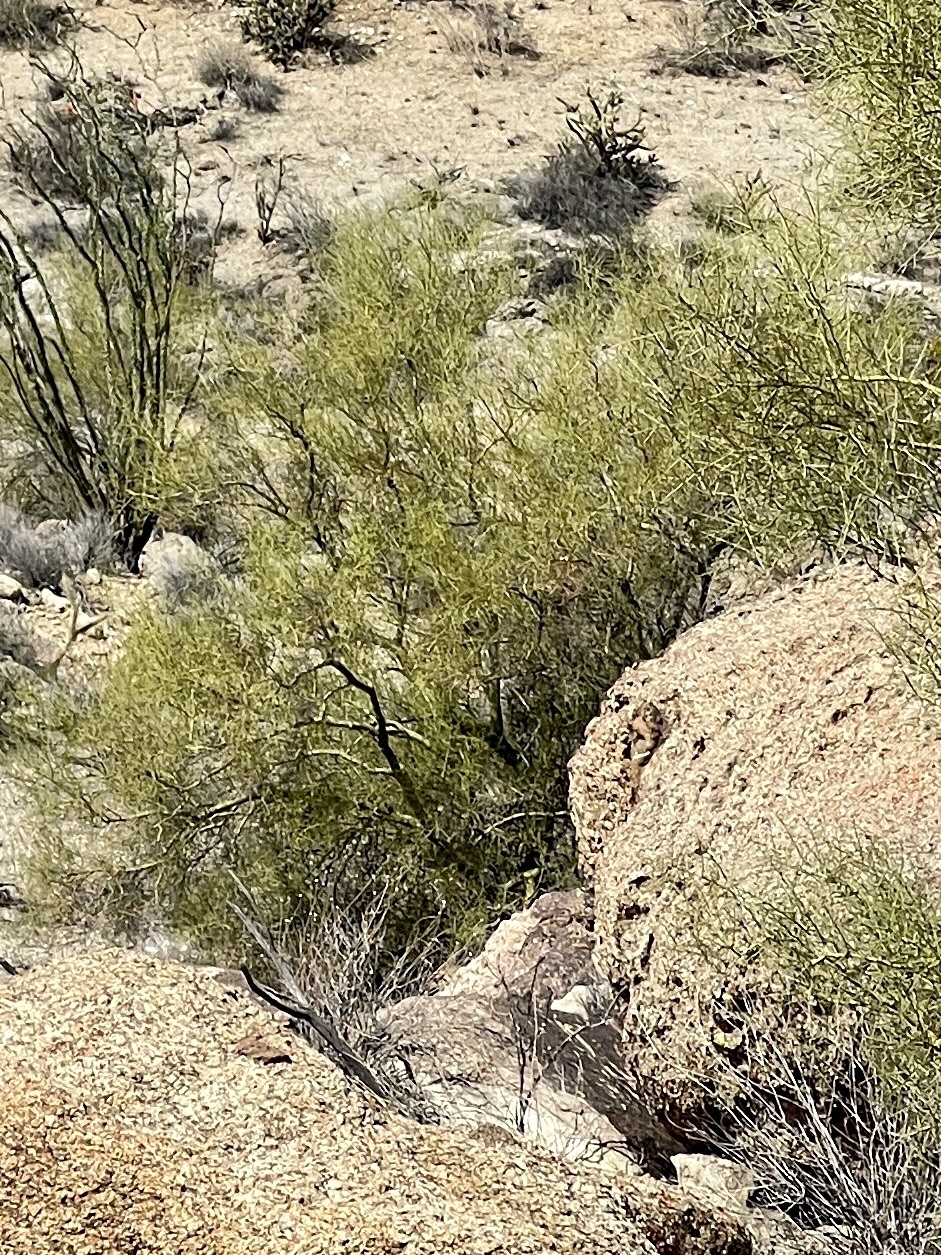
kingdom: Plantae
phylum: Tracheophyta
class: Magnoliopsida
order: Fabales
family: Fabaceae
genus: Parkinsonia
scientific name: Parkinsonia microphylla
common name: Yellow paloverde
